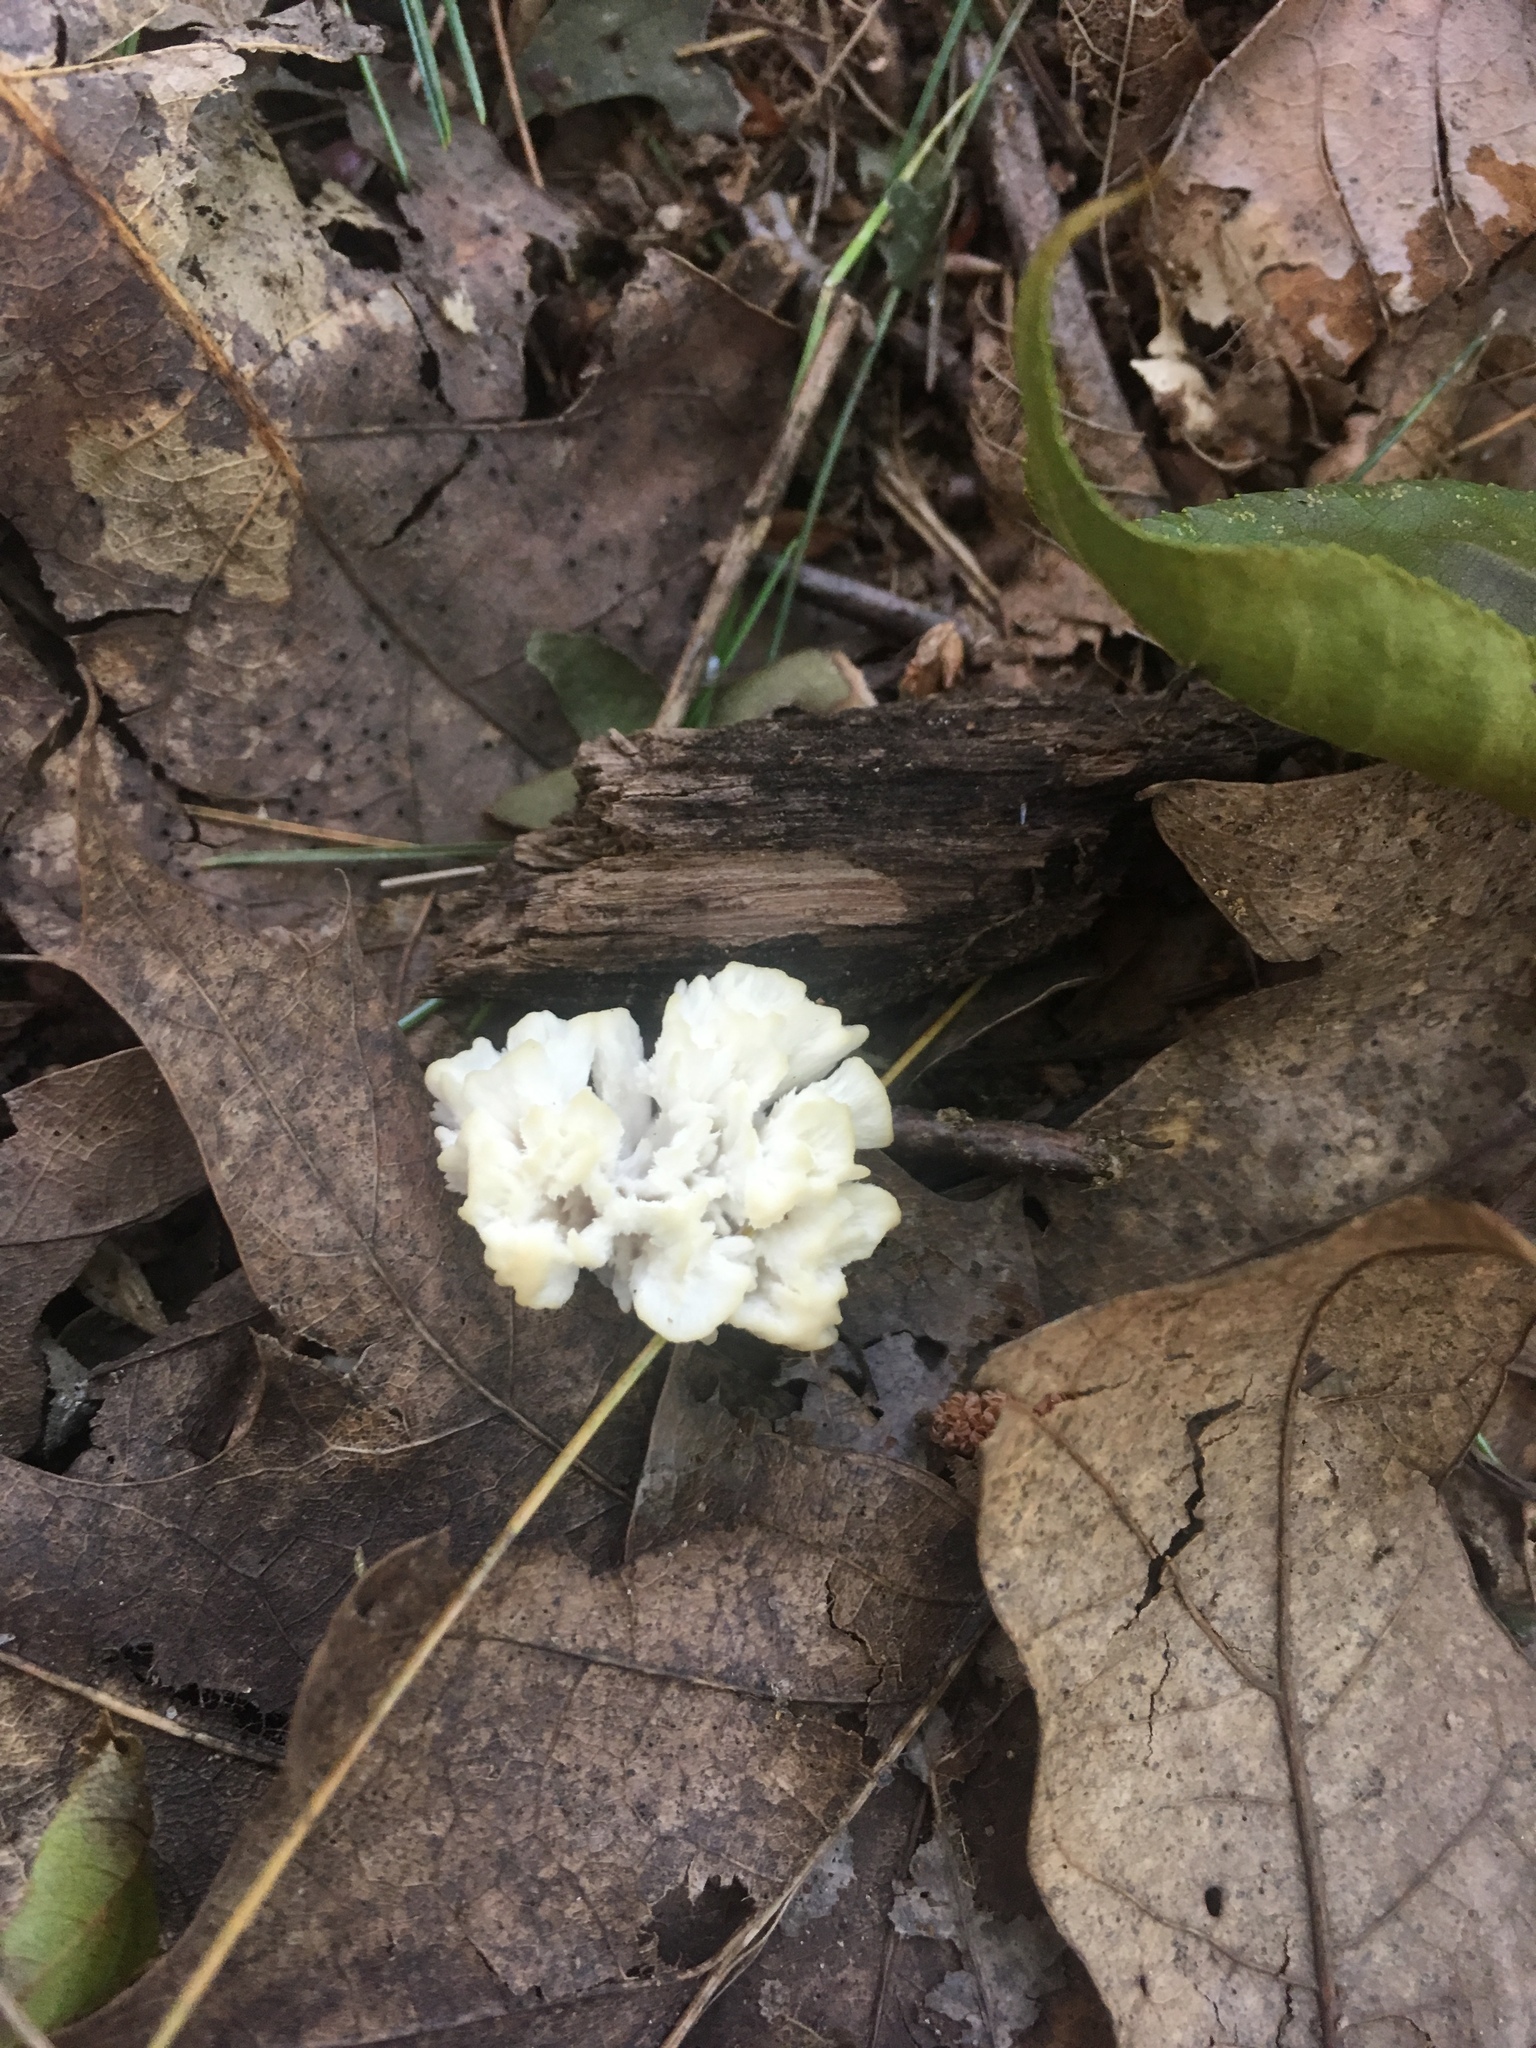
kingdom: Fungi
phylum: Basidiomycota
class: Agaricomycetes
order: Sebacinales
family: Sebacinaceae
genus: Sebacina
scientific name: Sebacina schweinitzii
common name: Jellied false coral fungus
